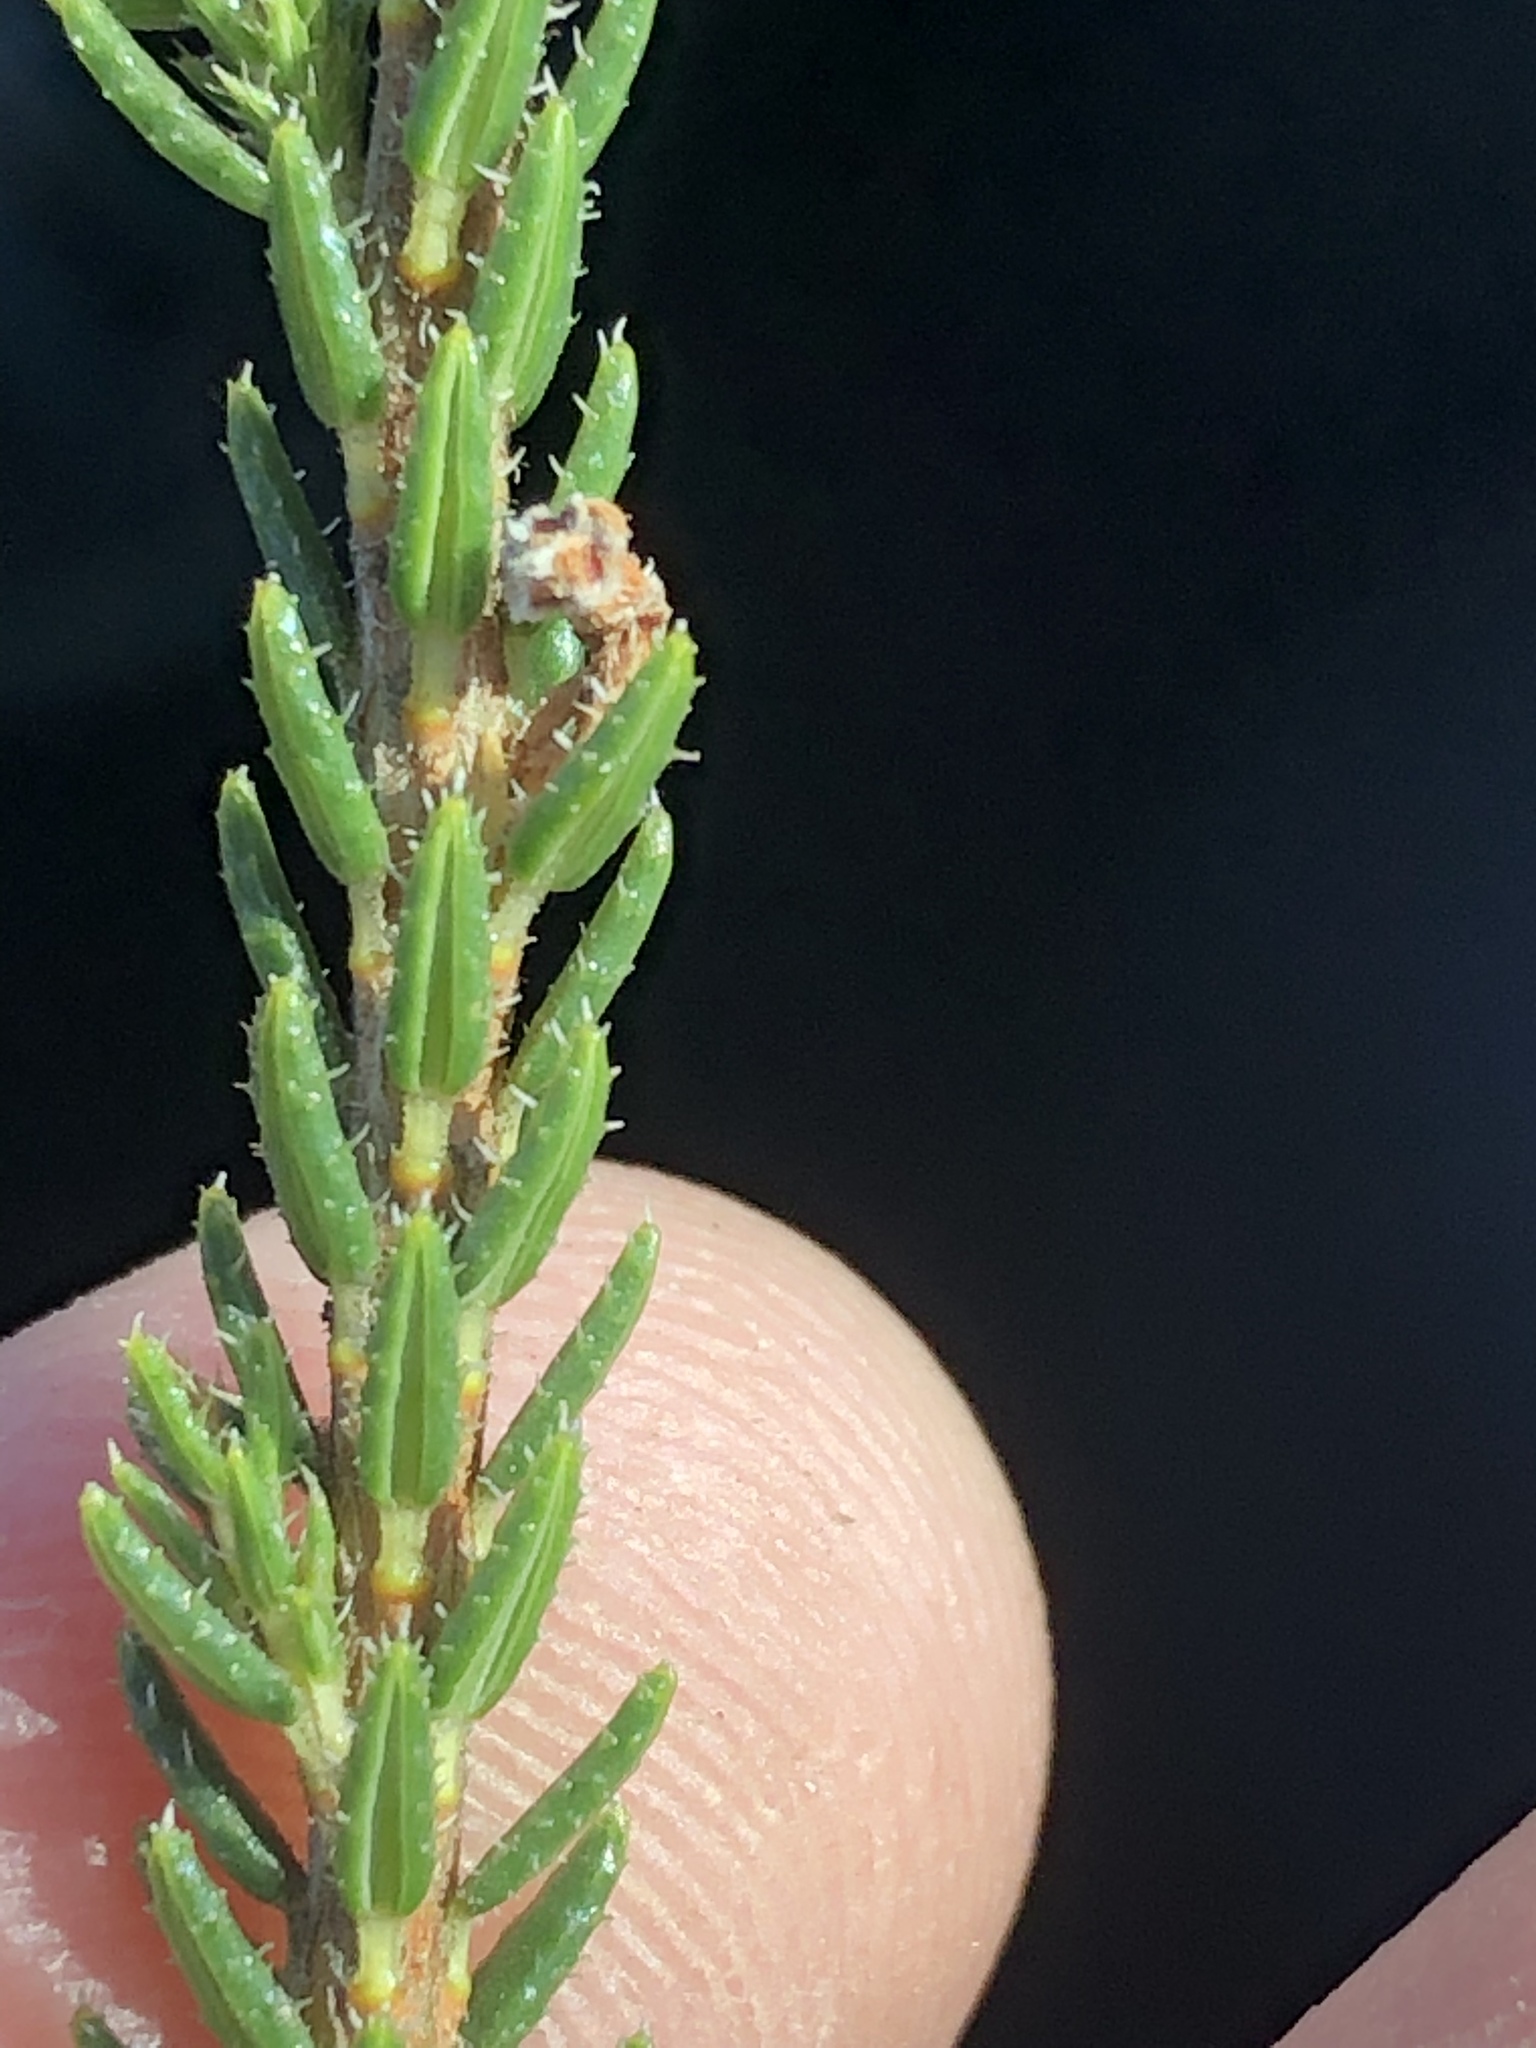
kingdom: Plantae
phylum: Tracheophyta
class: Magnoliopsida
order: Ericales
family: Ericaceae
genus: Erica
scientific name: Erica sparmannii
